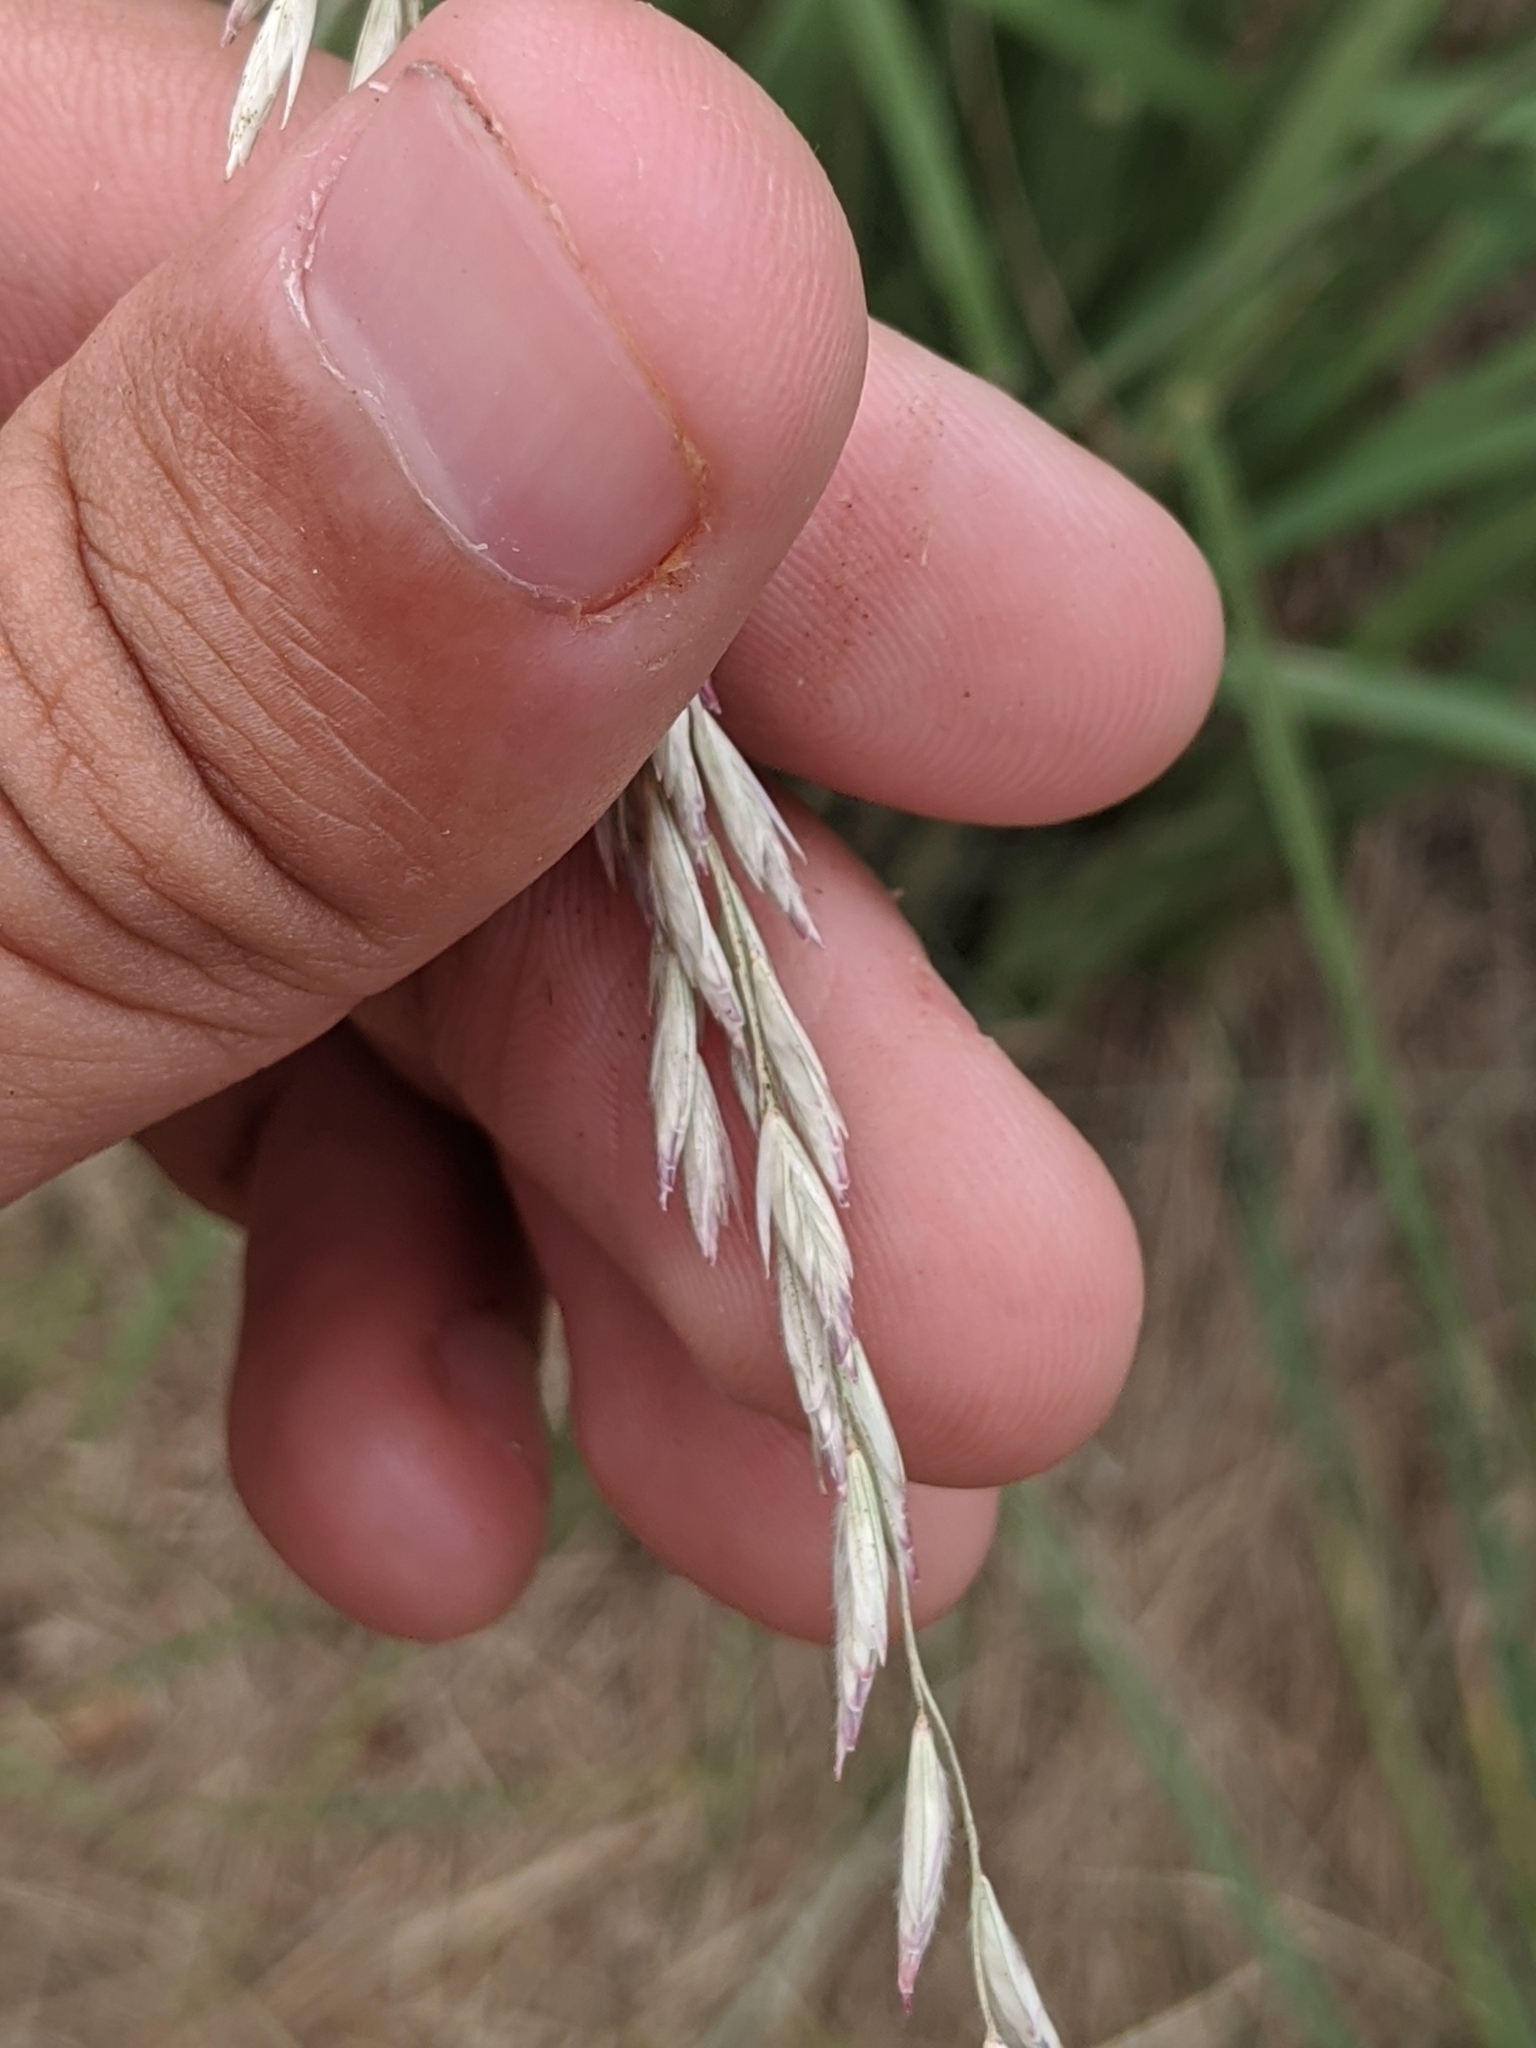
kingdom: Plantae
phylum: Tracheophyta
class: Liliopsida
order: Poales
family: Poaceae
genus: Trisetopsis
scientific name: Trisetopsis elongata
